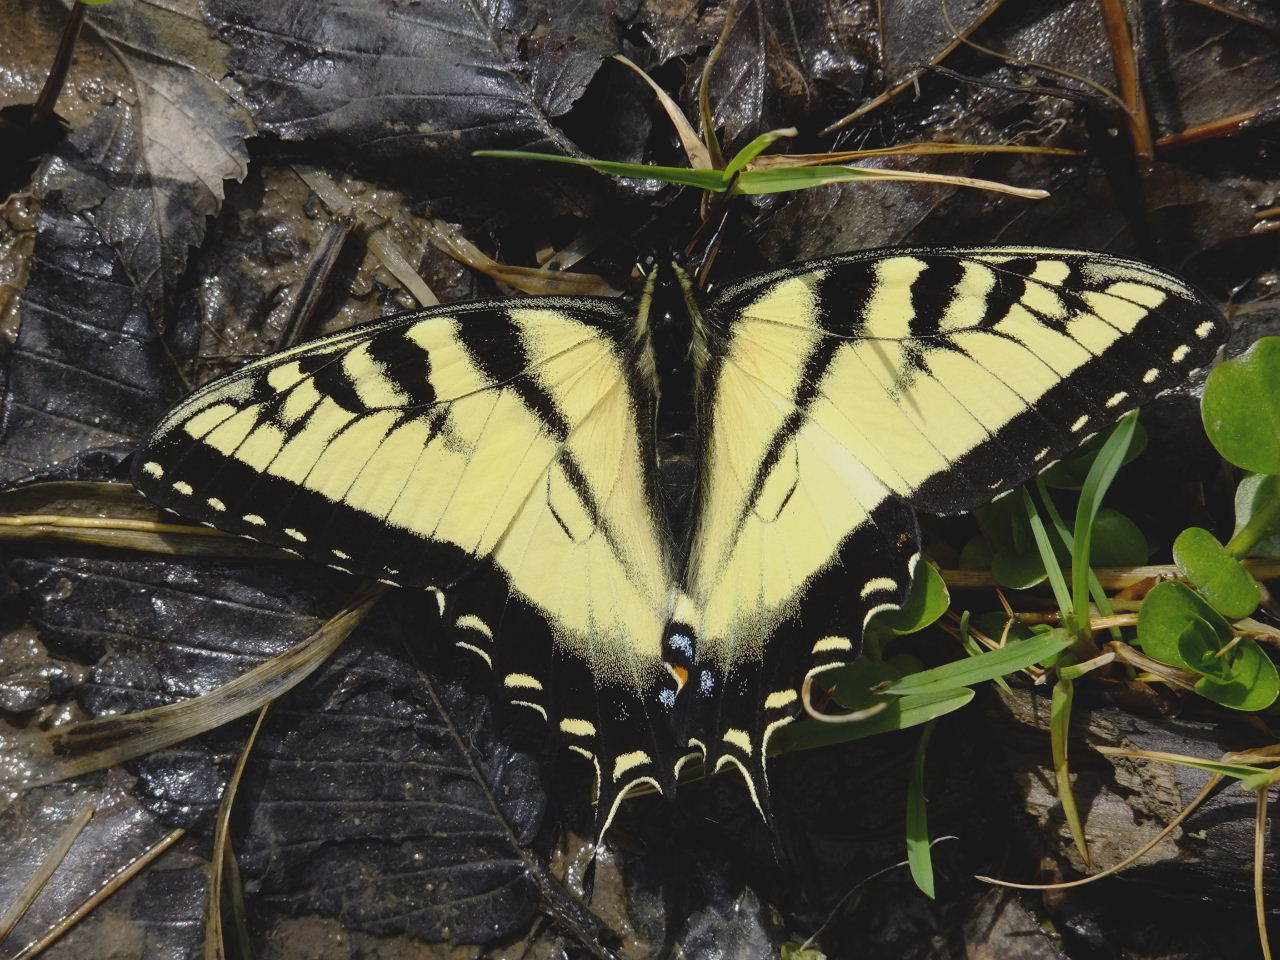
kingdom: Animalia
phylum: Arthropoda
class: Insecta
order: Lepidoptera
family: Papilionidae
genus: Papilio
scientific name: Papilio glaucus
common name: Tiger swallowtail
